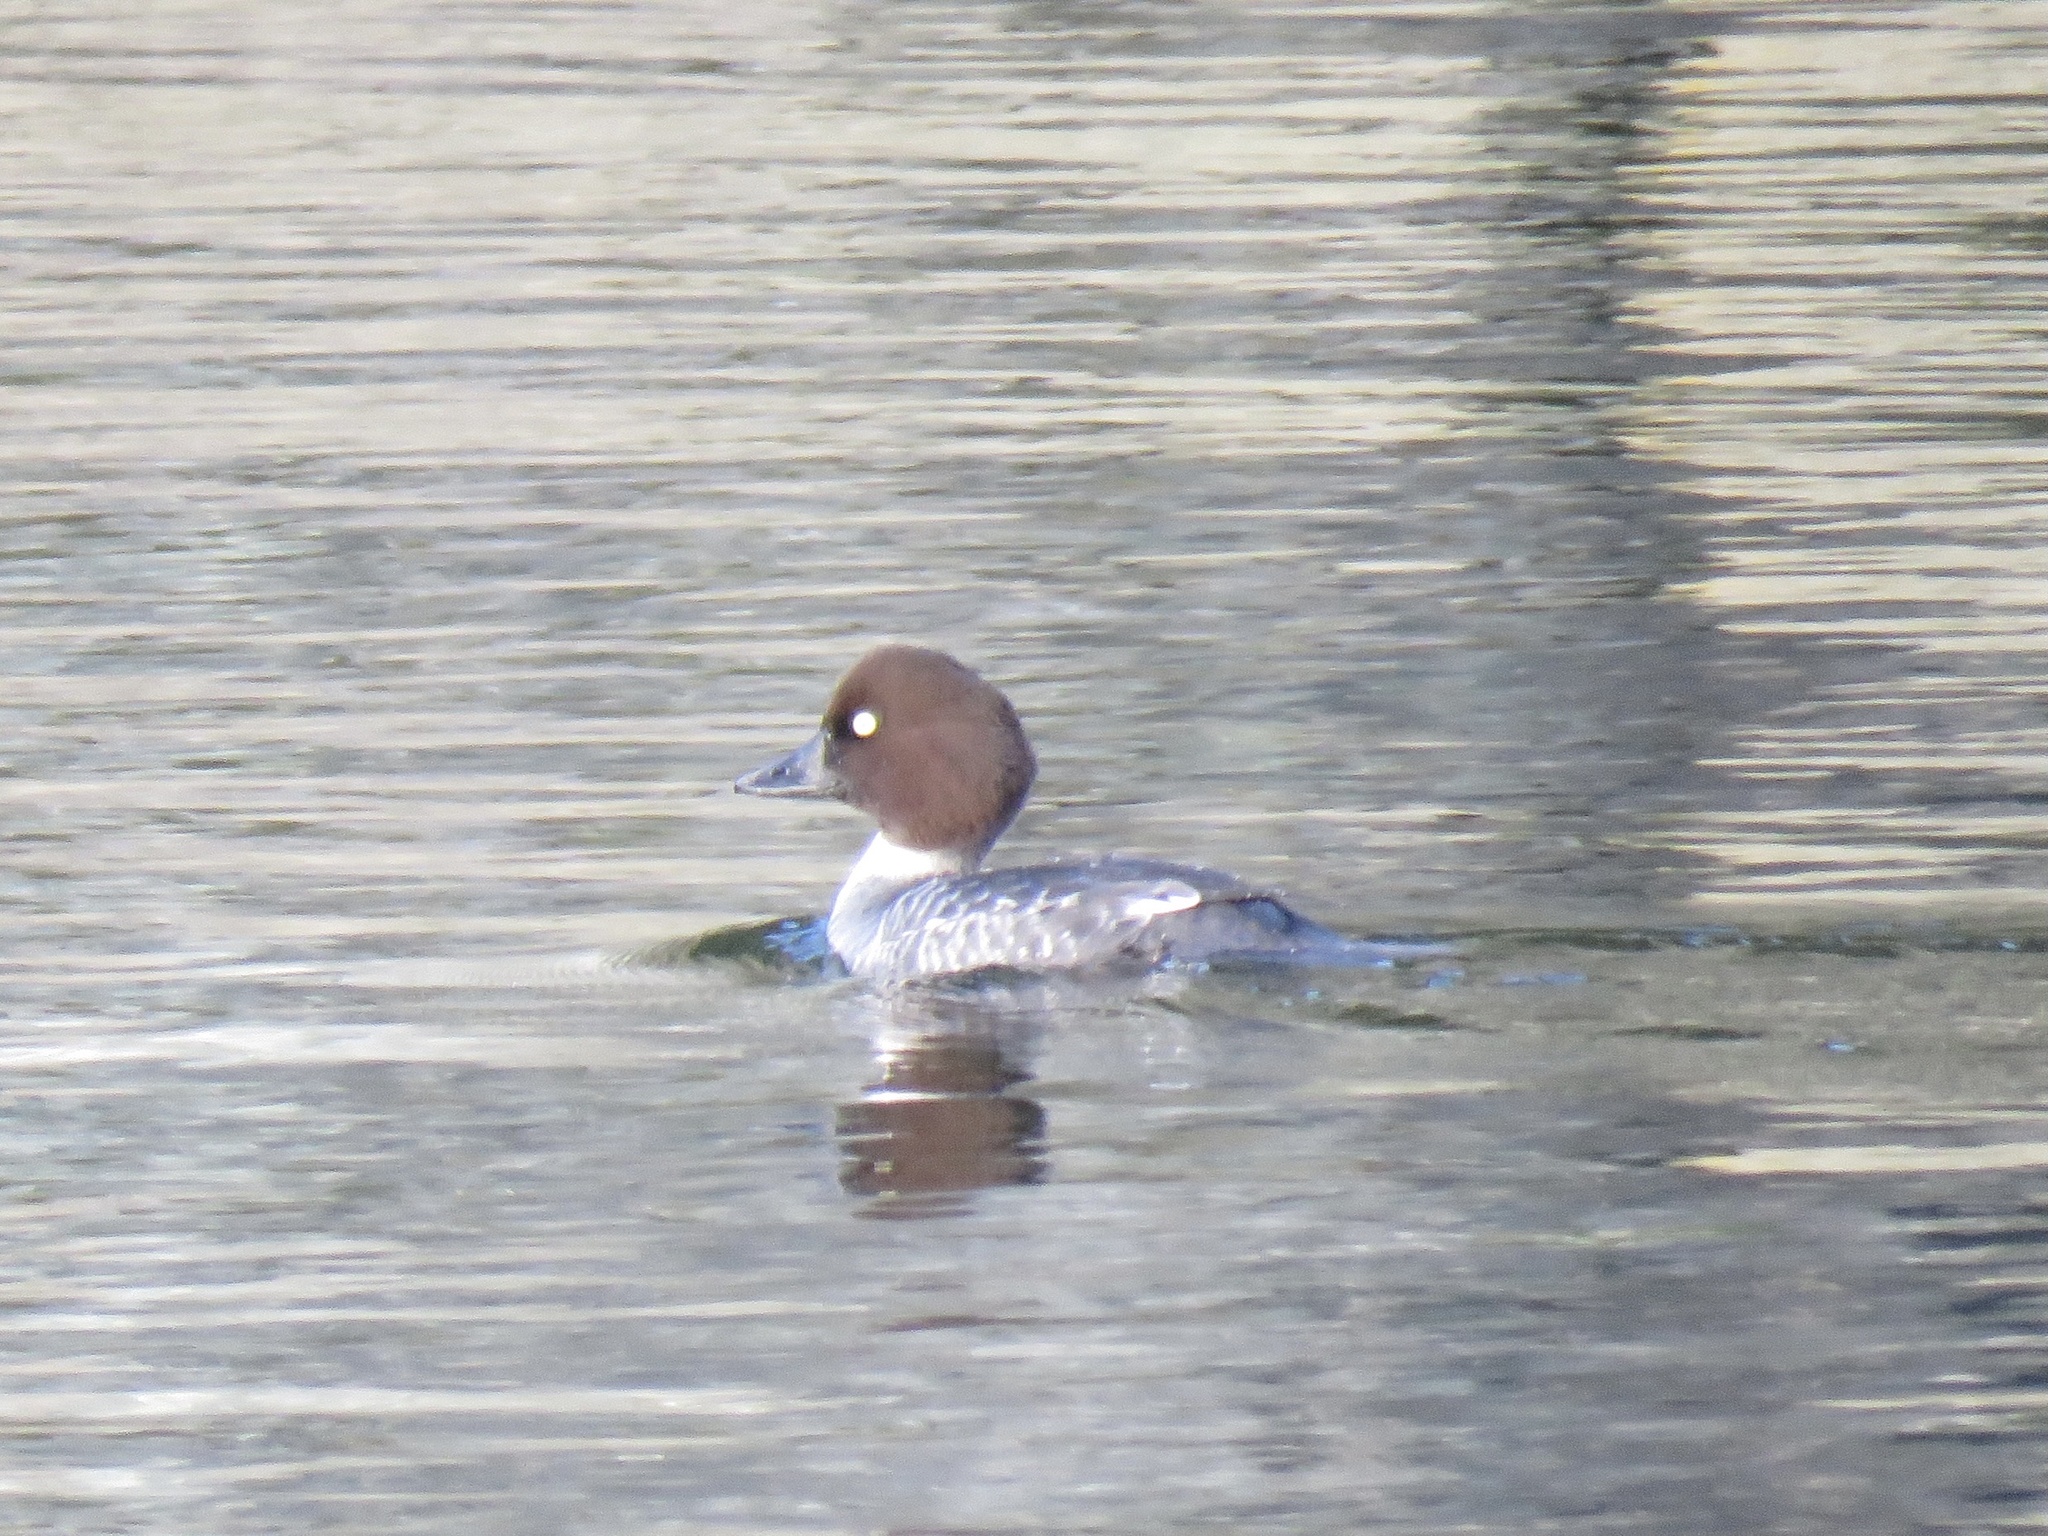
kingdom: Animalia
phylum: Chordata
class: Aves
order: Anseriformes
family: Anatidae
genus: Bucephala
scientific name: Bucephala clangula
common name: Common goldeneye
